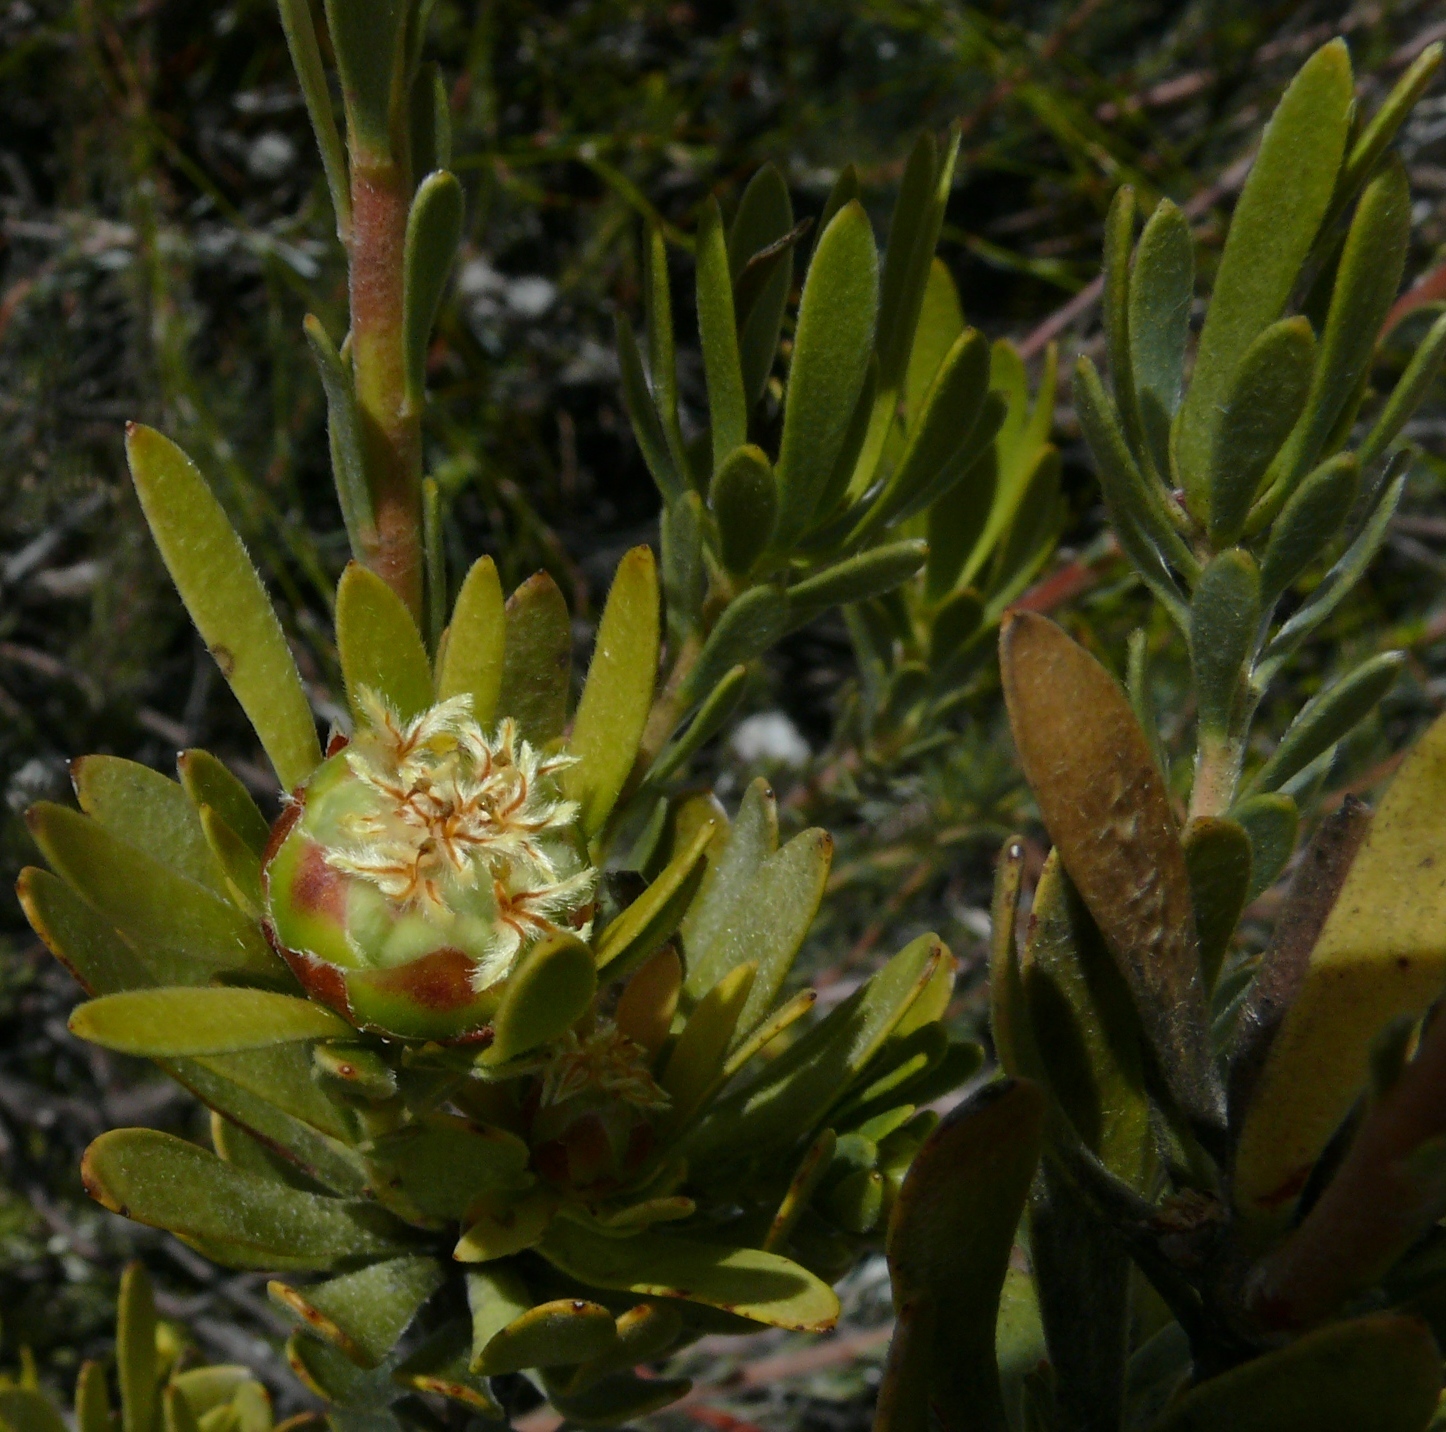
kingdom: Plantae
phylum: Tracheophyta
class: Magnoliopsida
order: Proteales
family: Proteaceae
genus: Leucadendron
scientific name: Leucadendron dubium
